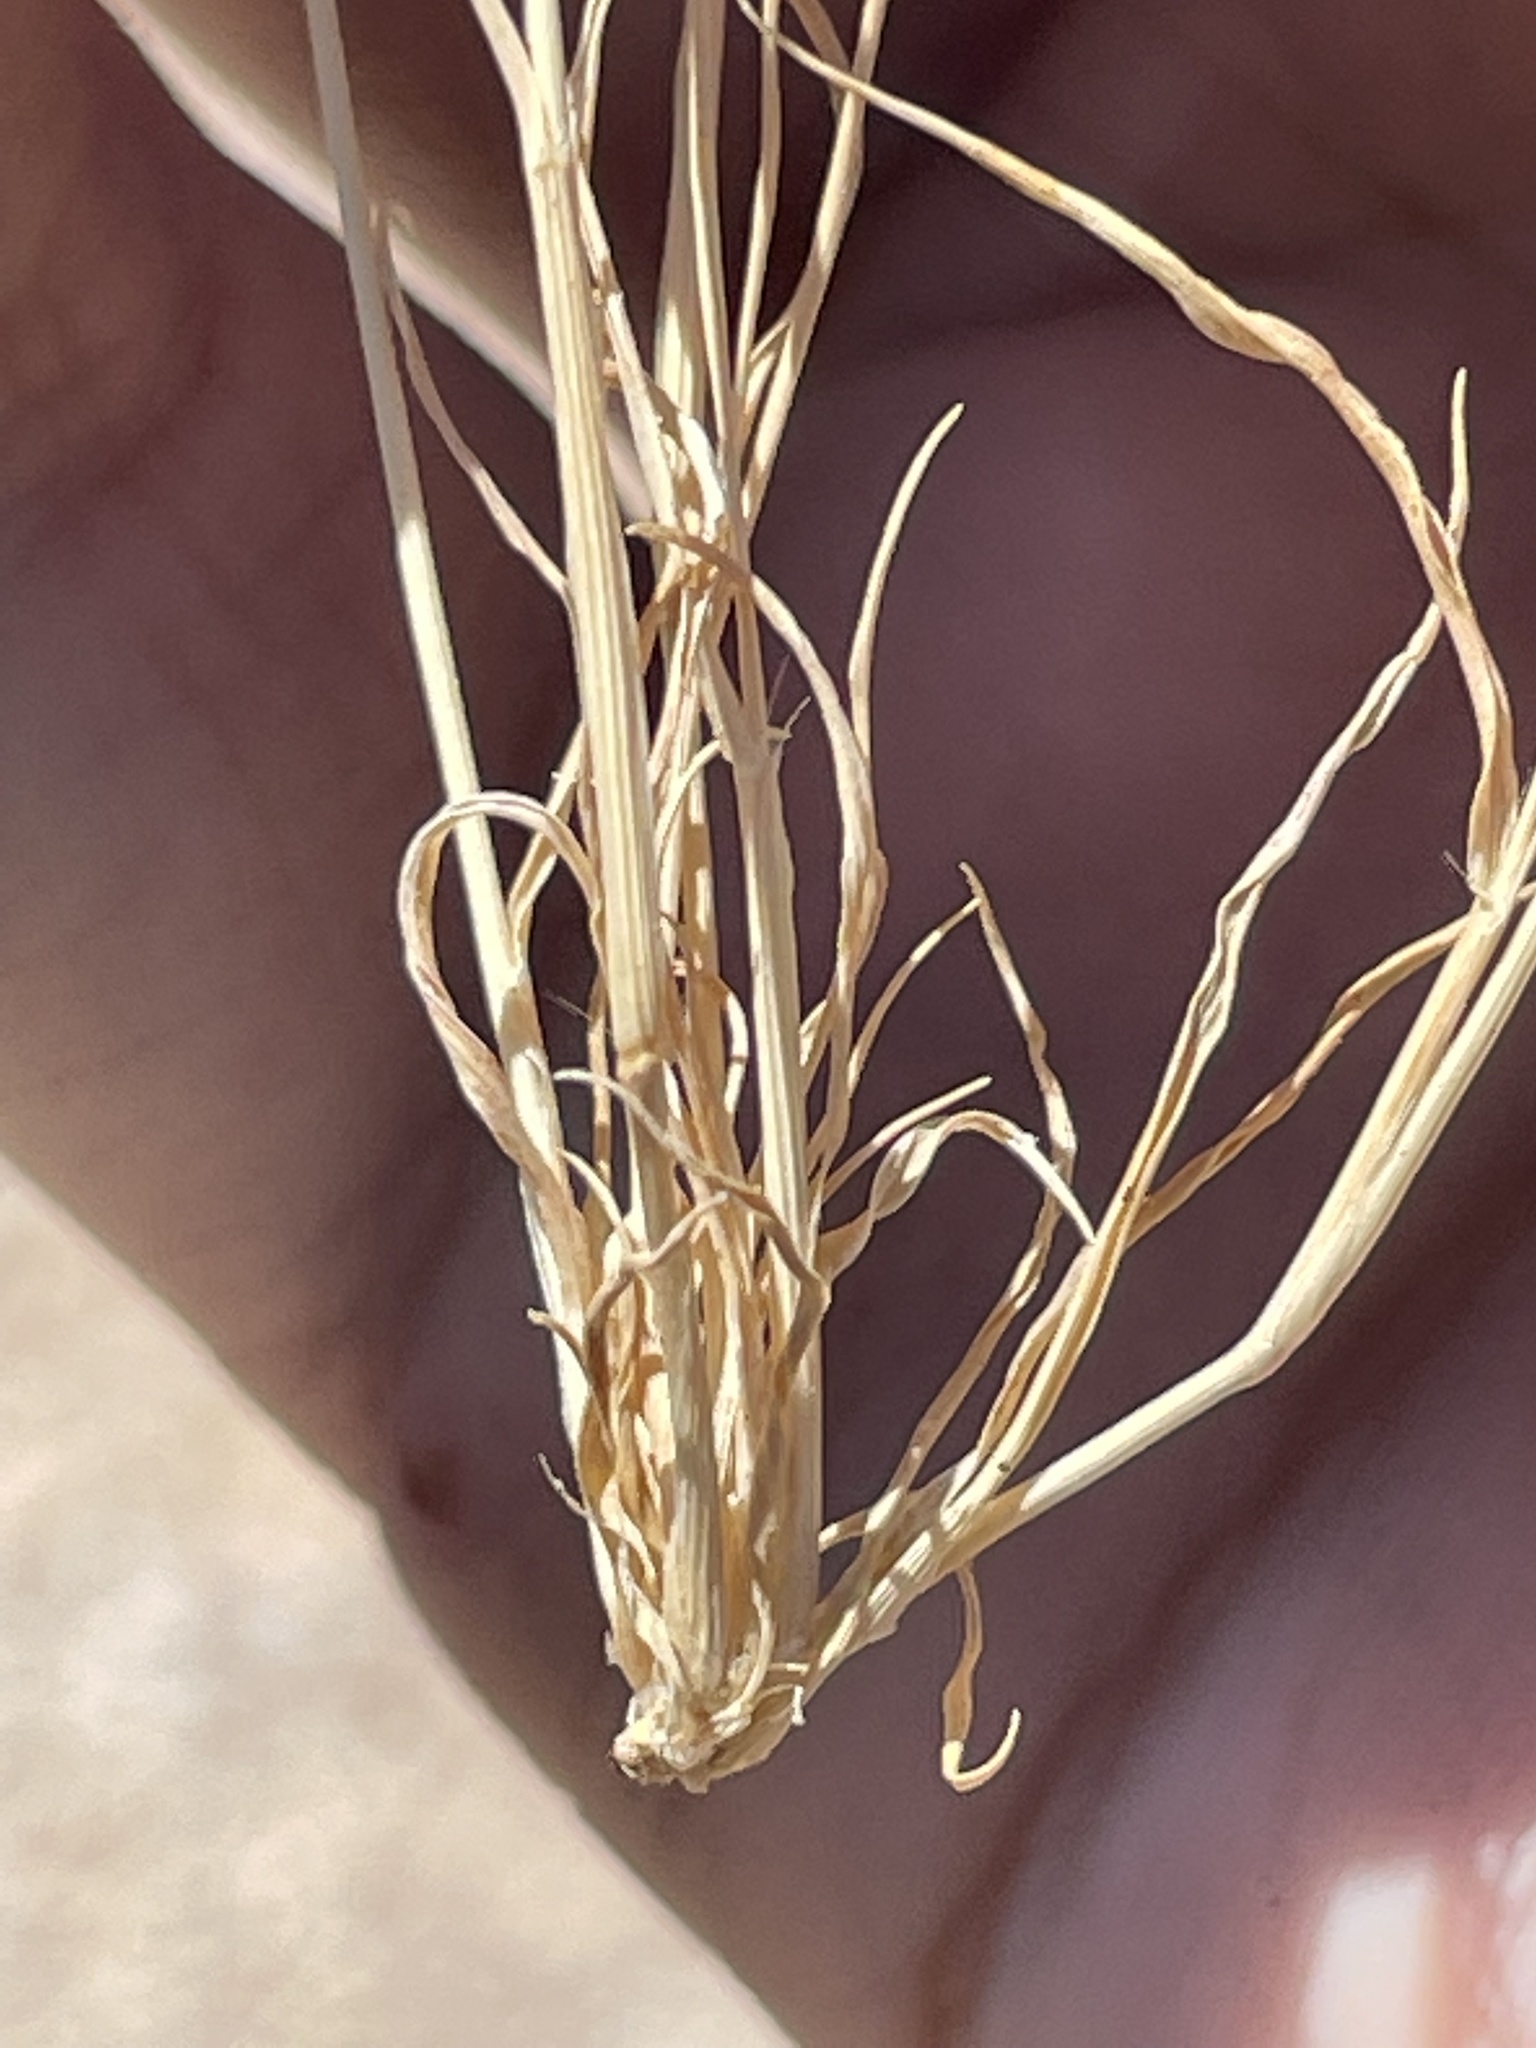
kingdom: Plantae
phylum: Tracheophyta
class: Liliopsida
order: Poales
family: Poaceae
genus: Bouteloua
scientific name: Bouteloua barbata
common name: Six-weeks grama
